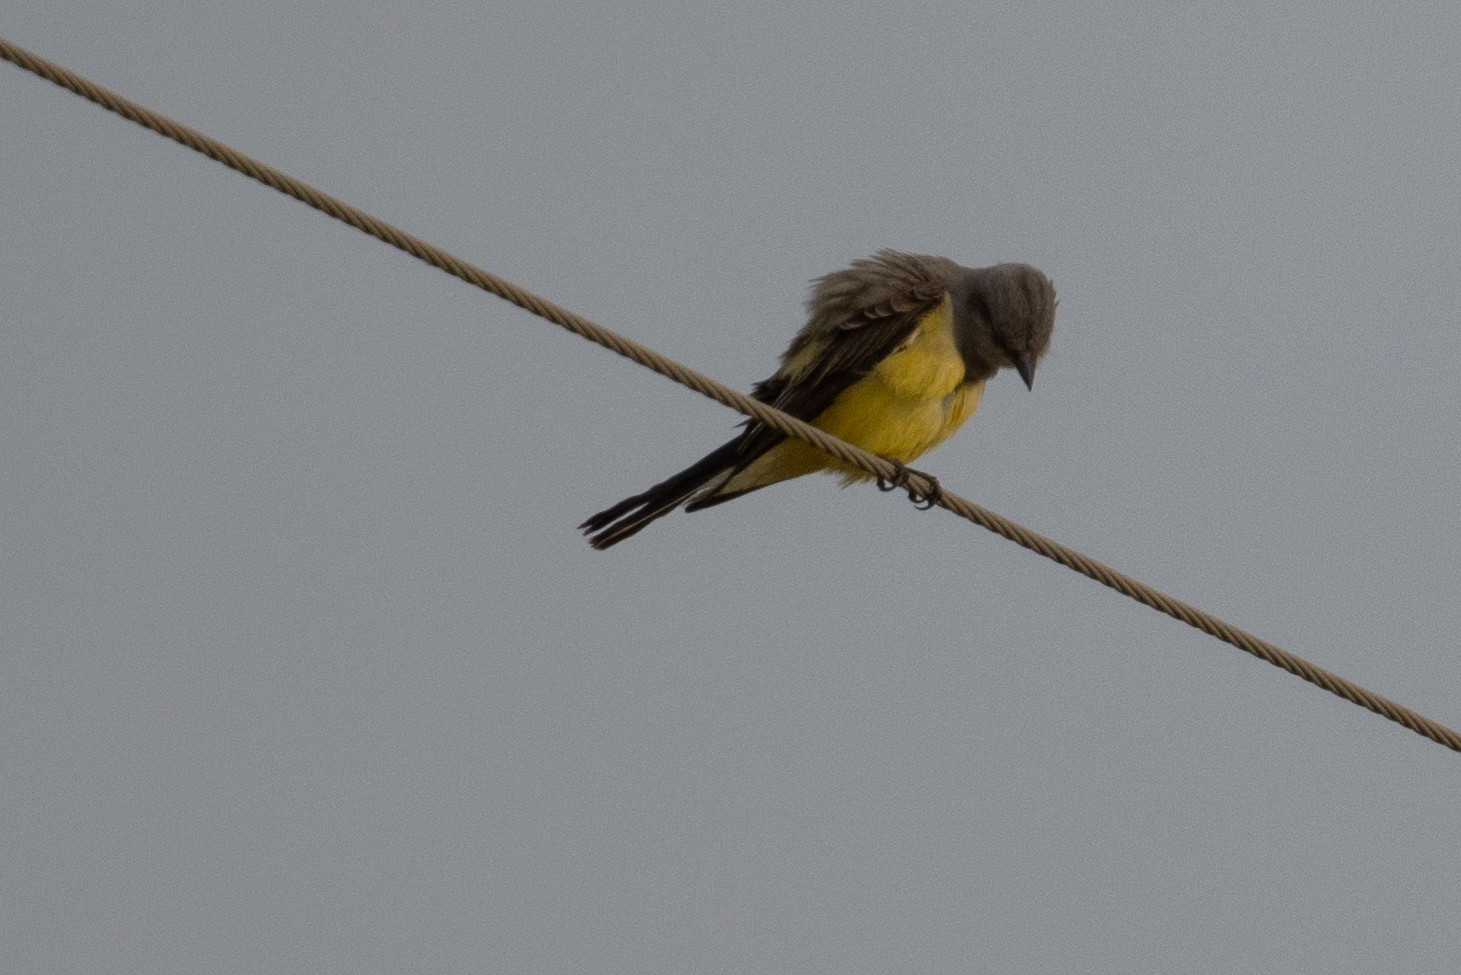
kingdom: Animalia
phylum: Chordata
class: Aves
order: Passeriformes
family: Tyrannidae
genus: Tyrannus
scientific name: Tyrannus verticalis
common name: Western kingbird
